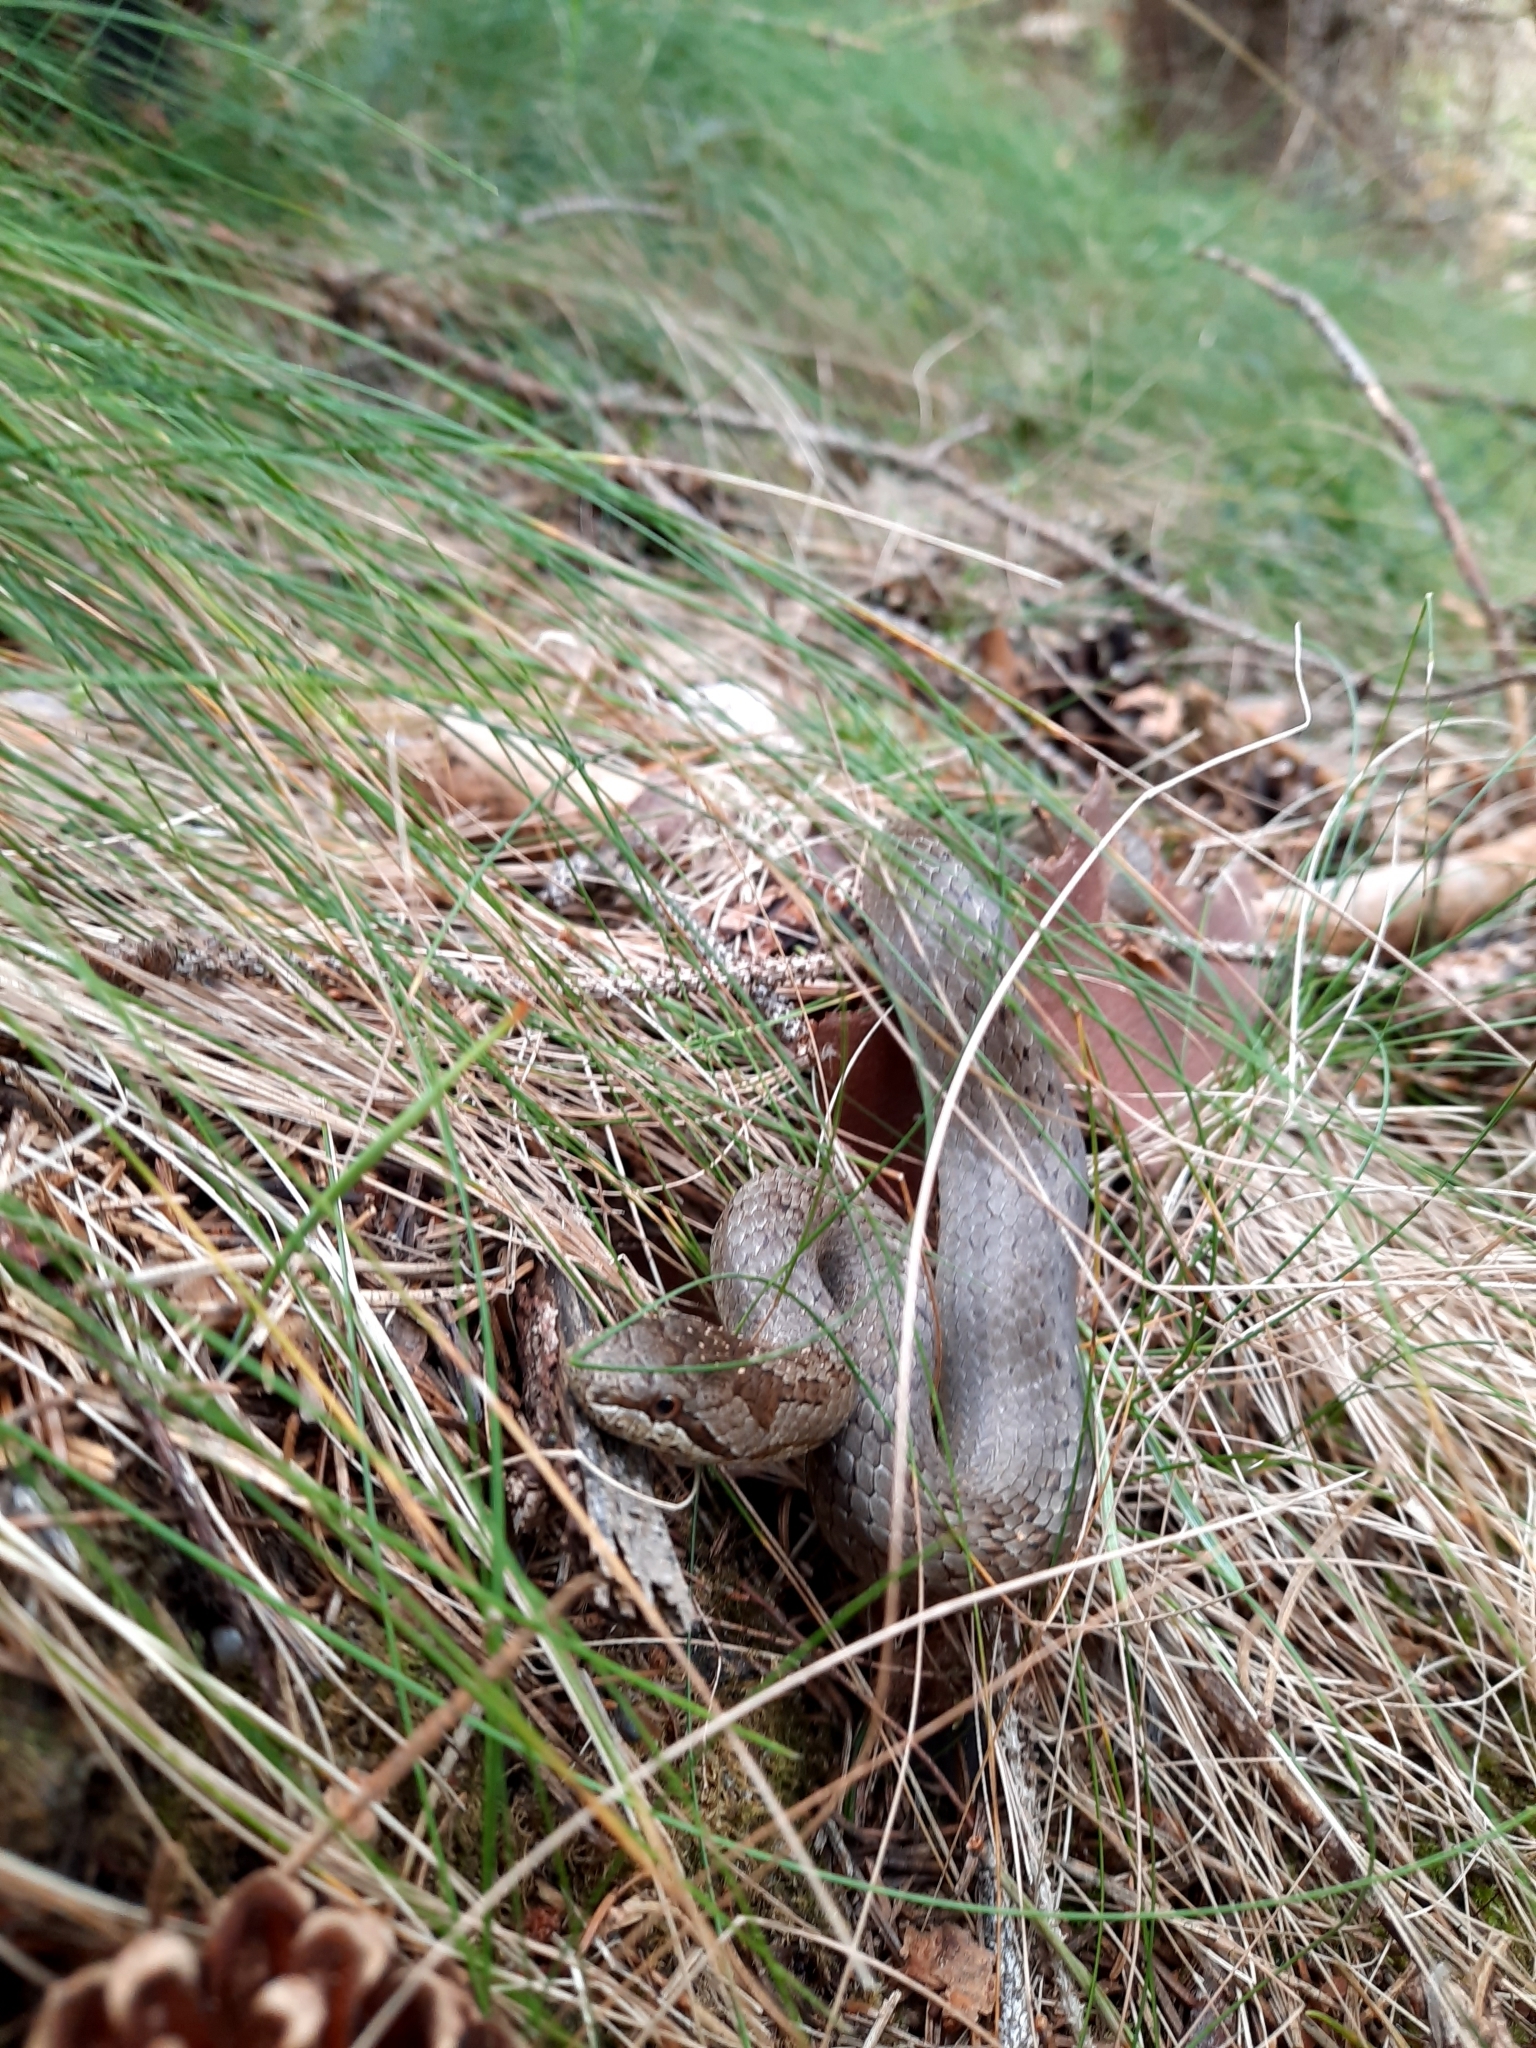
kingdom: Animalia
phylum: Chordata
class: Squamata
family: Colubridae
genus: Coronella
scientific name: Coronella austriaca
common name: Smooth snake
